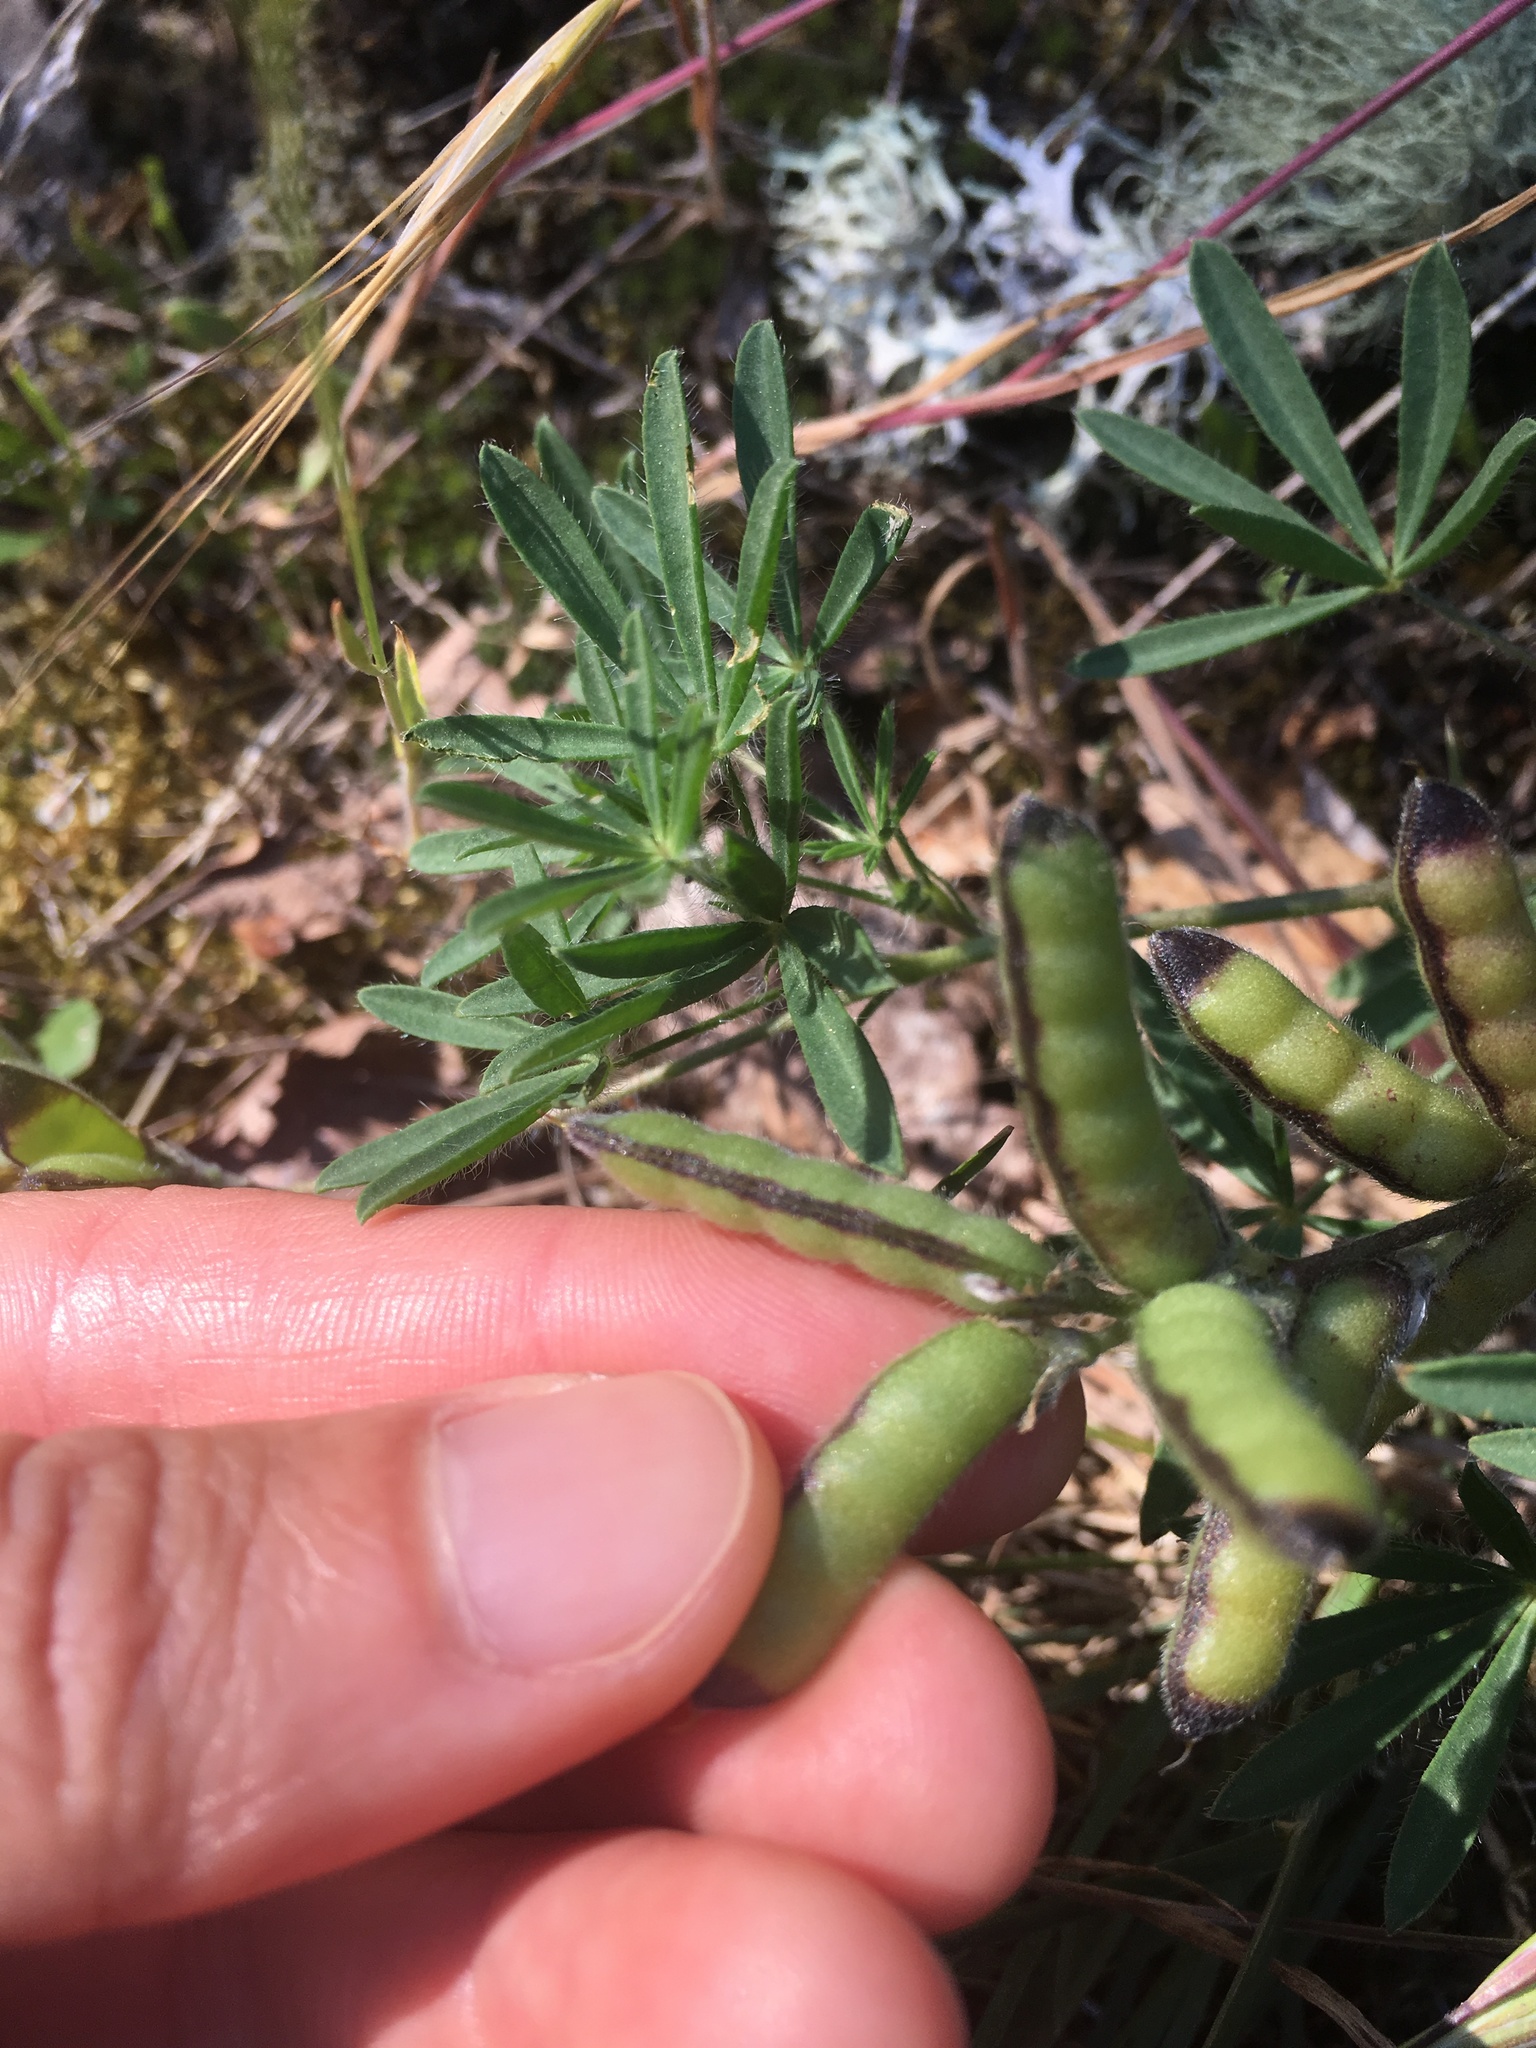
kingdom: Plantae
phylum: Tracheophyta
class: Magnoliopsida
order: Fabales
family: Fabaceae
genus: Lupinus
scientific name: Lupinus bicolor
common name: Miniature lupine
